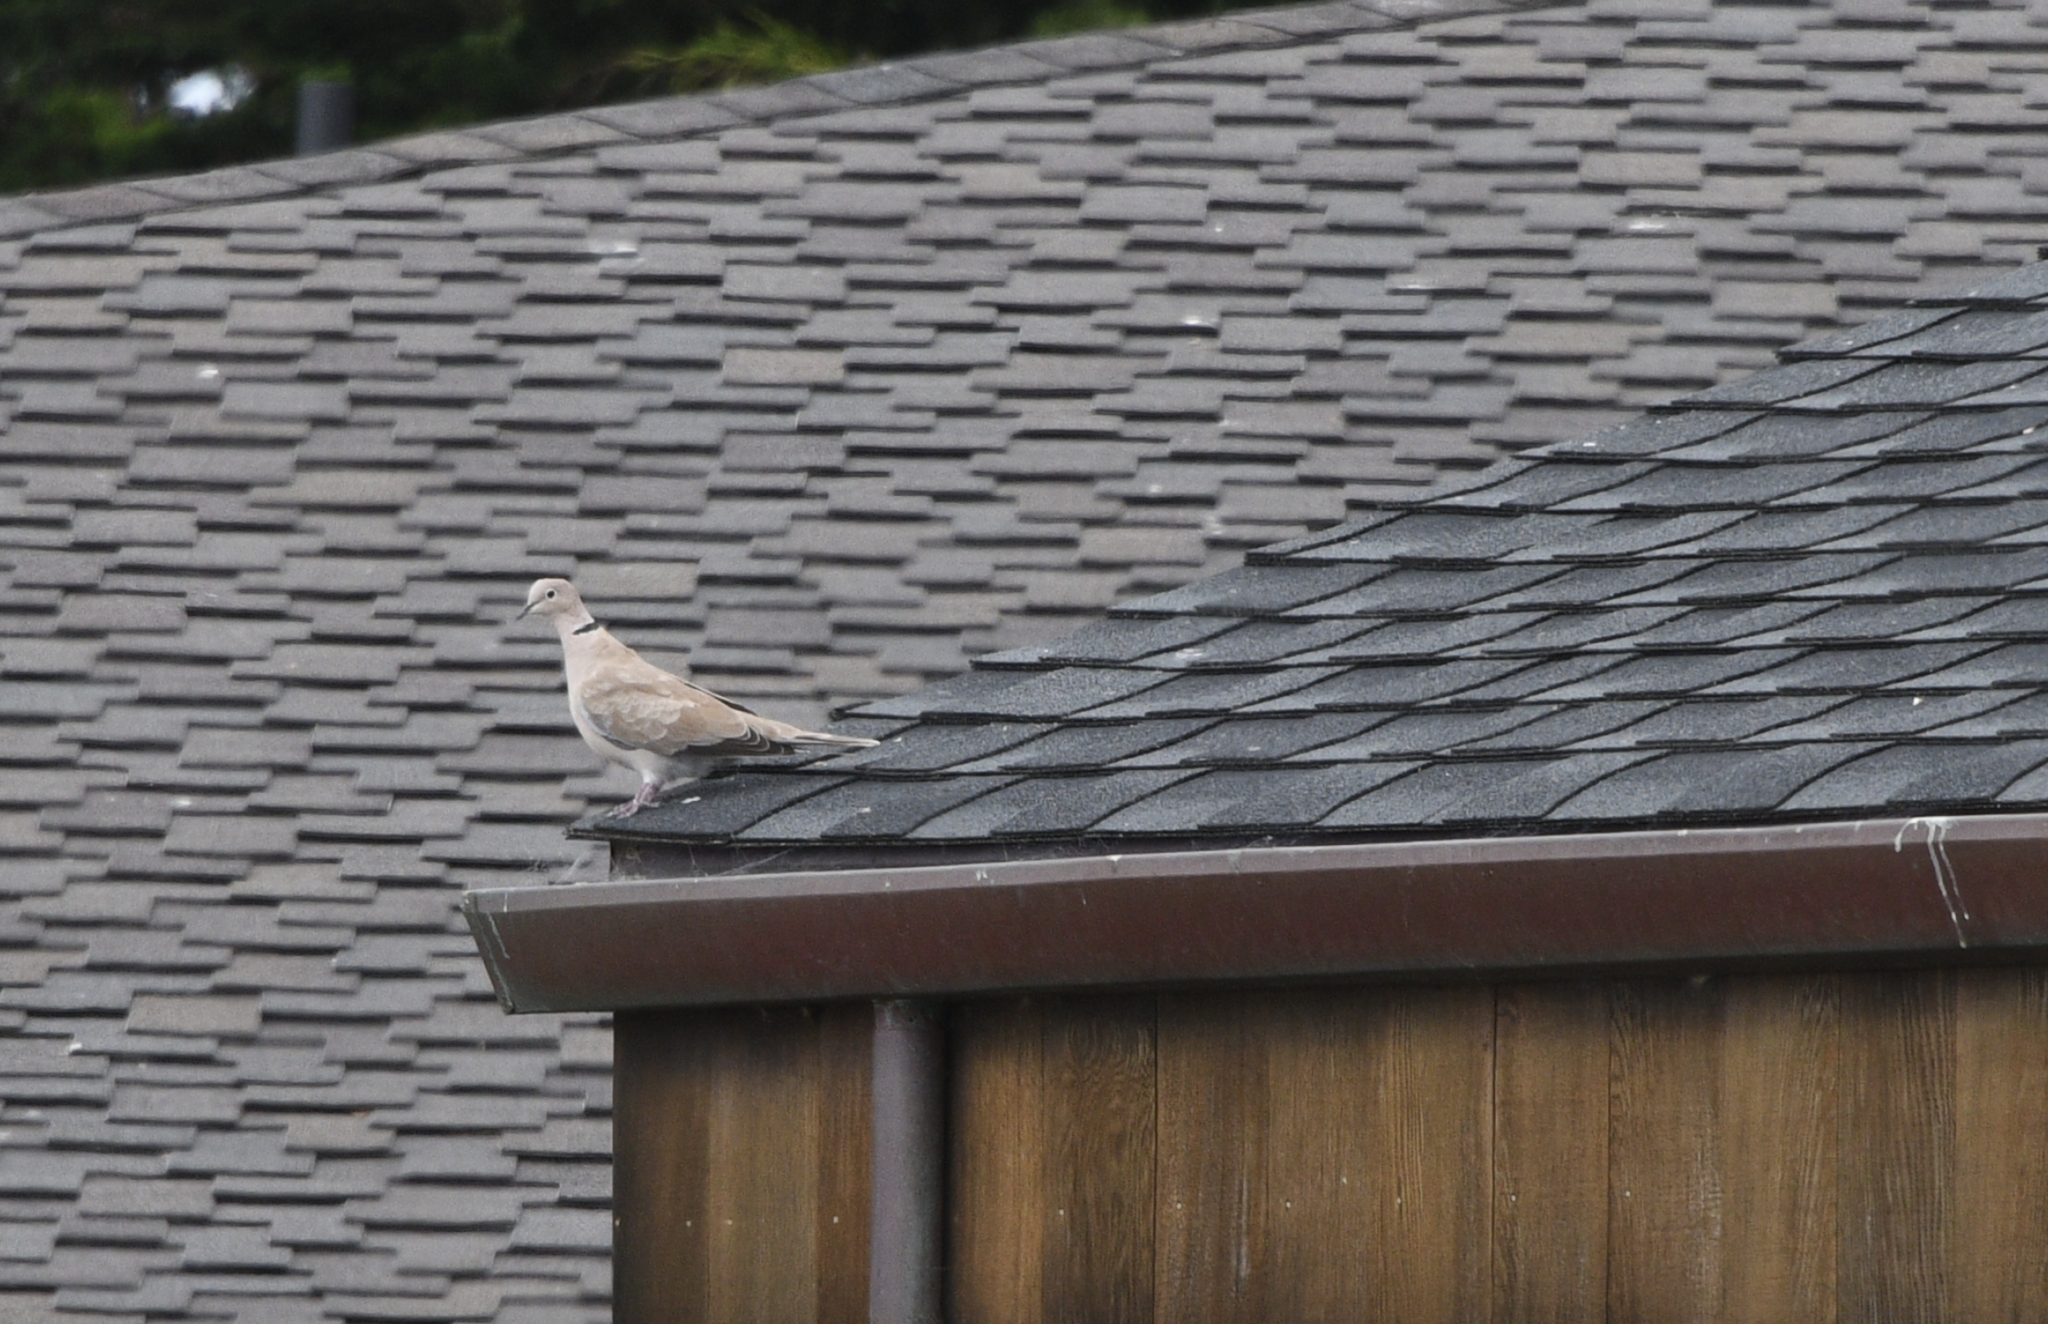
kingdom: Animalia
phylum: Chordata
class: Aves
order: Columbiformes
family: Columbidae
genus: Streptopelia
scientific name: Streptopelia decaocto
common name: Eurasian collared dove
